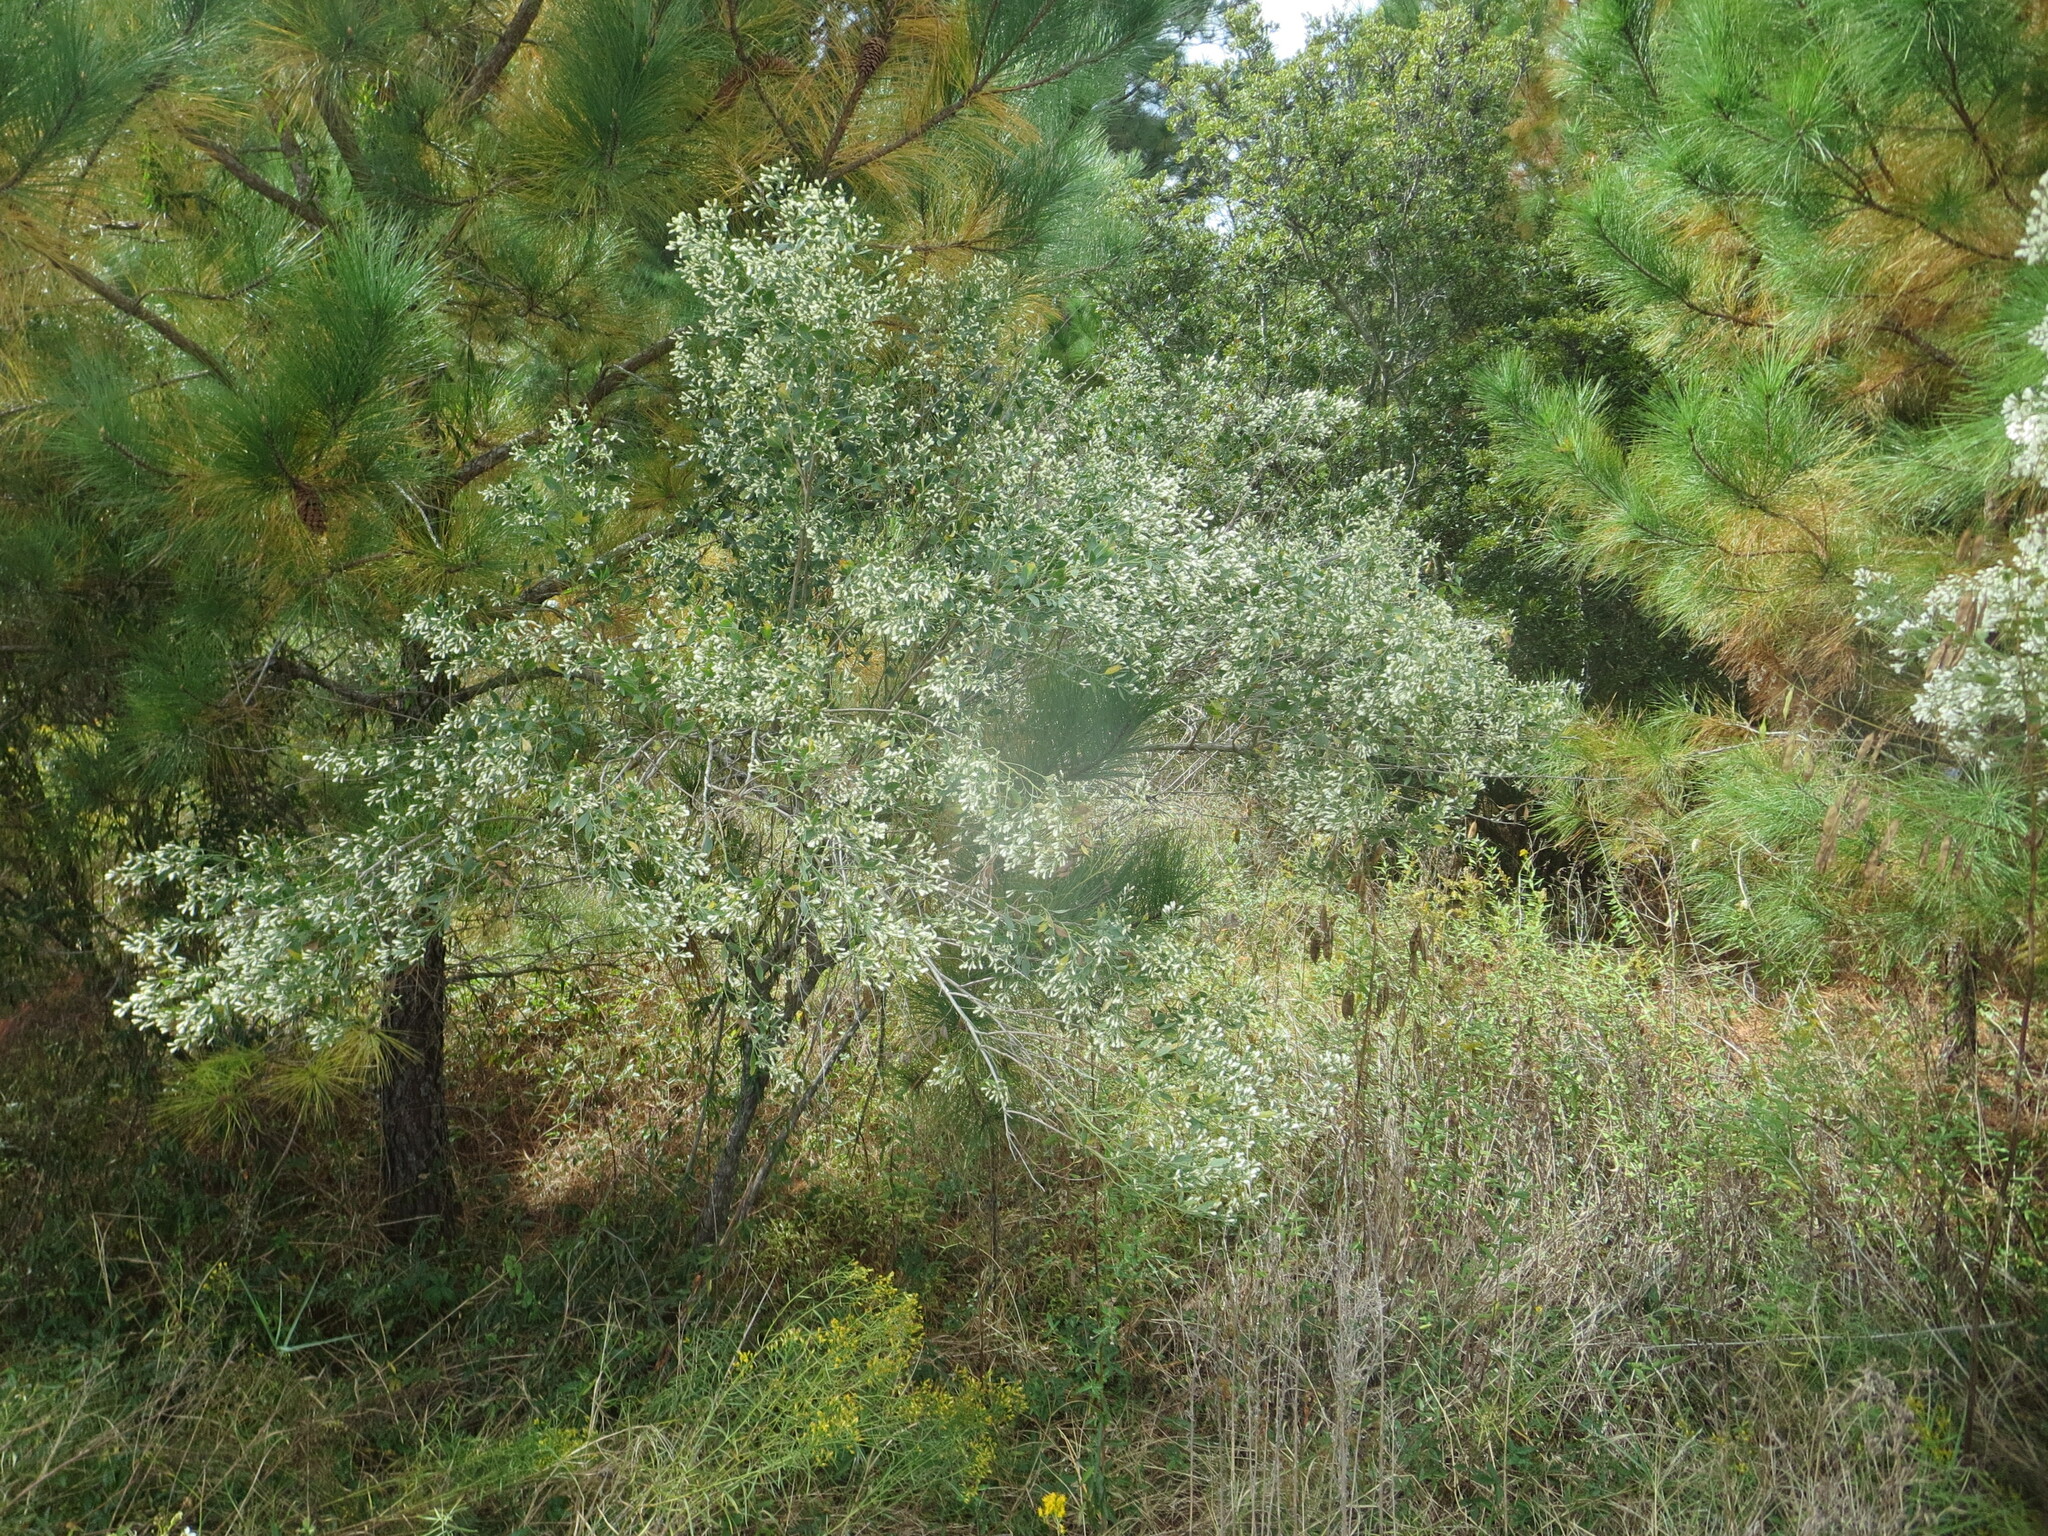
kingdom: Plantae
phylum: Tracheophyta
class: Magnoliopsida
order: Asterales
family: Asteraceae
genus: Baccharis
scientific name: Baccharis halimifolia
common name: Eastern baccharis
